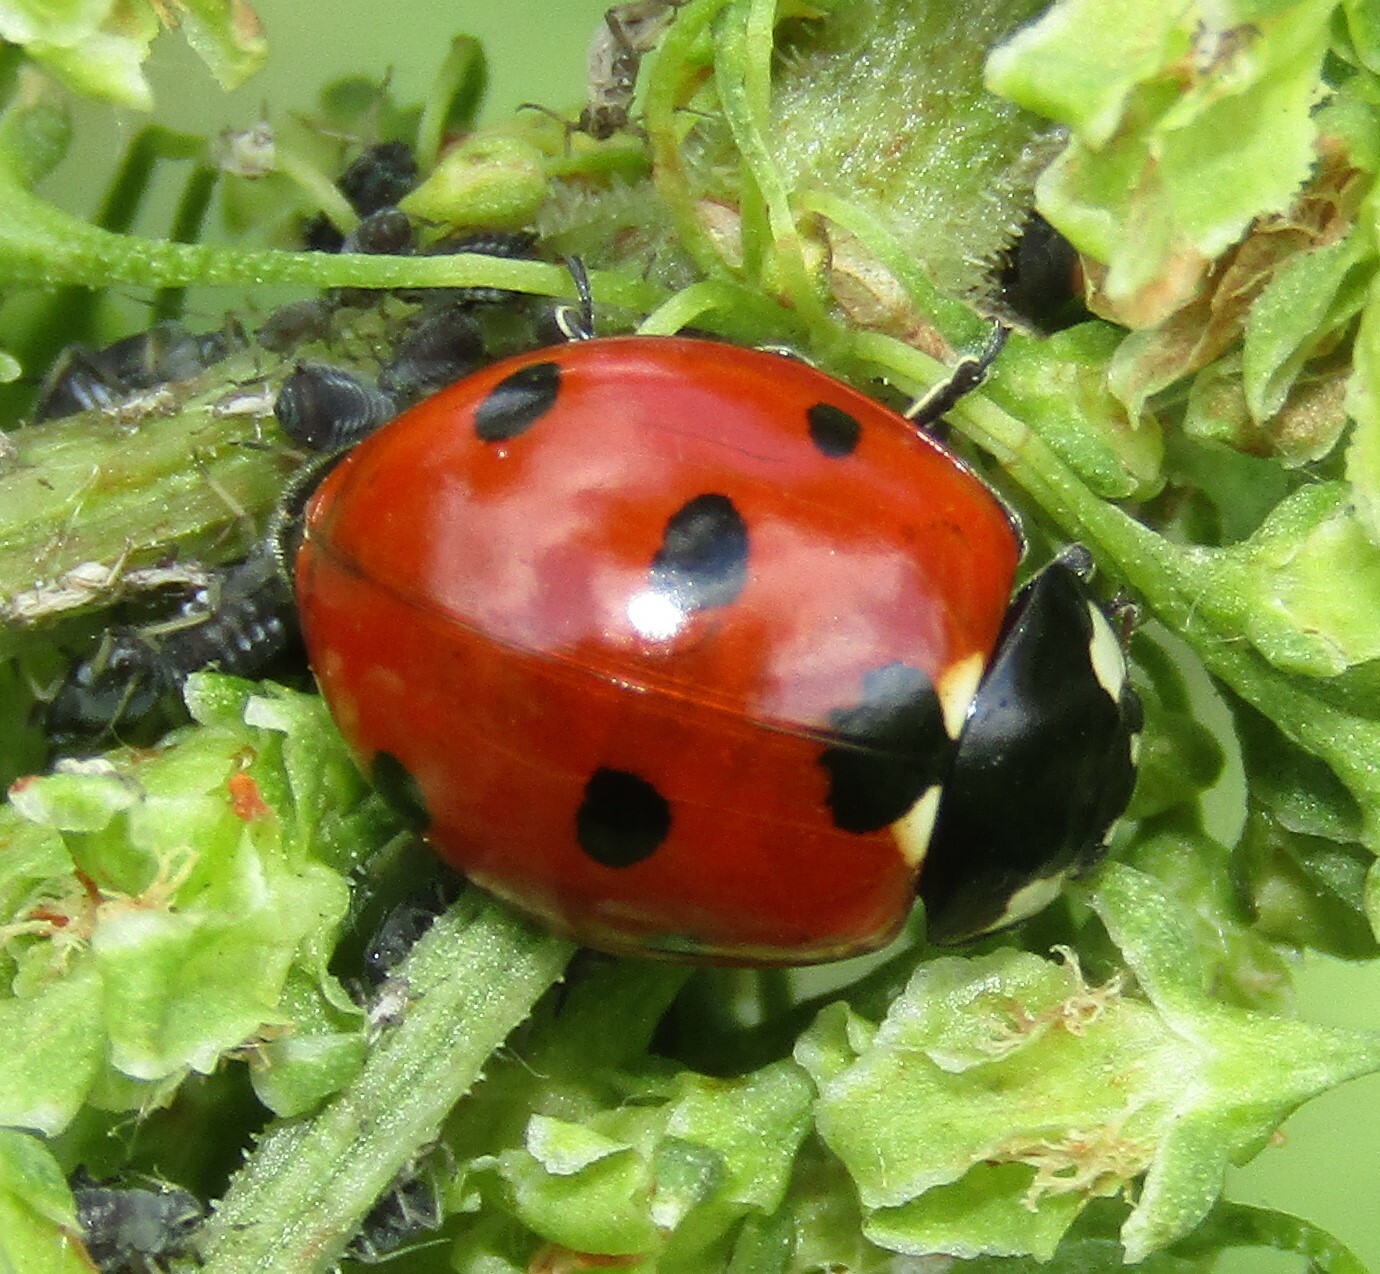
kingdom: Animalia
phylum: Arthropoda
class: Insecta
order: Coleoptera
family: Coccinellidae
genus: Coccinella
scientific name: Coccinella septempunctata
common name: Sevenspotted lady beetle
